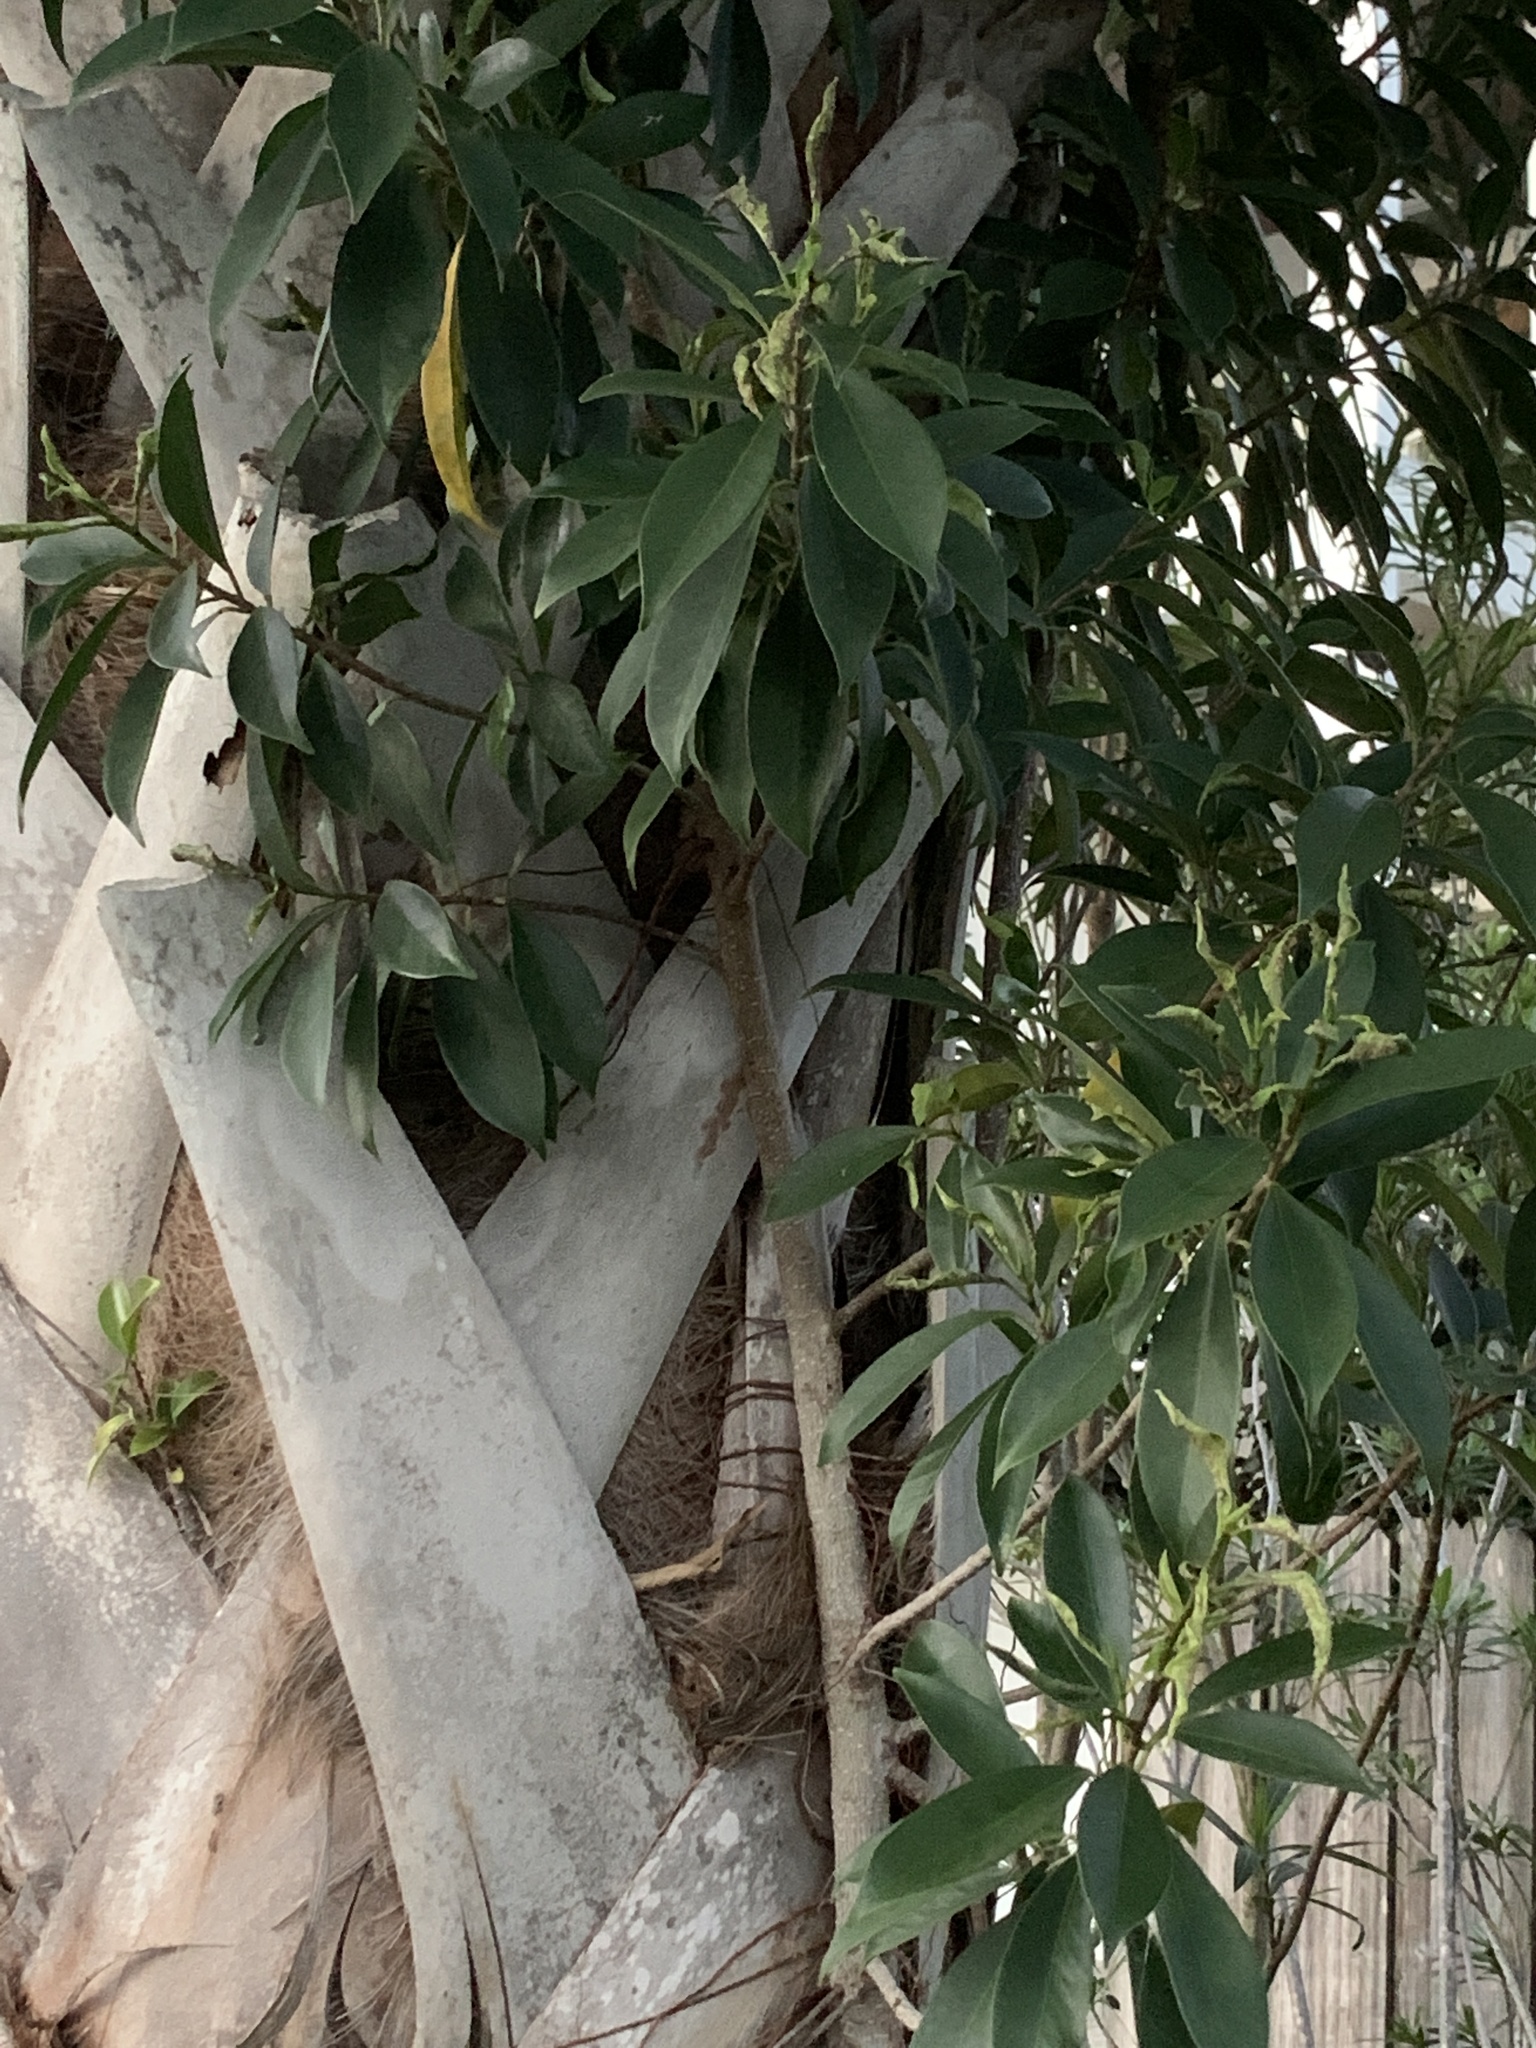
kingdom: Plantae
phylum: Tracheophyta
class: Magnoliopsida
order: Rosales
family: Moraceae
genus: Ficus
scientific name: Ficus microcarpa
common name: Chinese banyan
